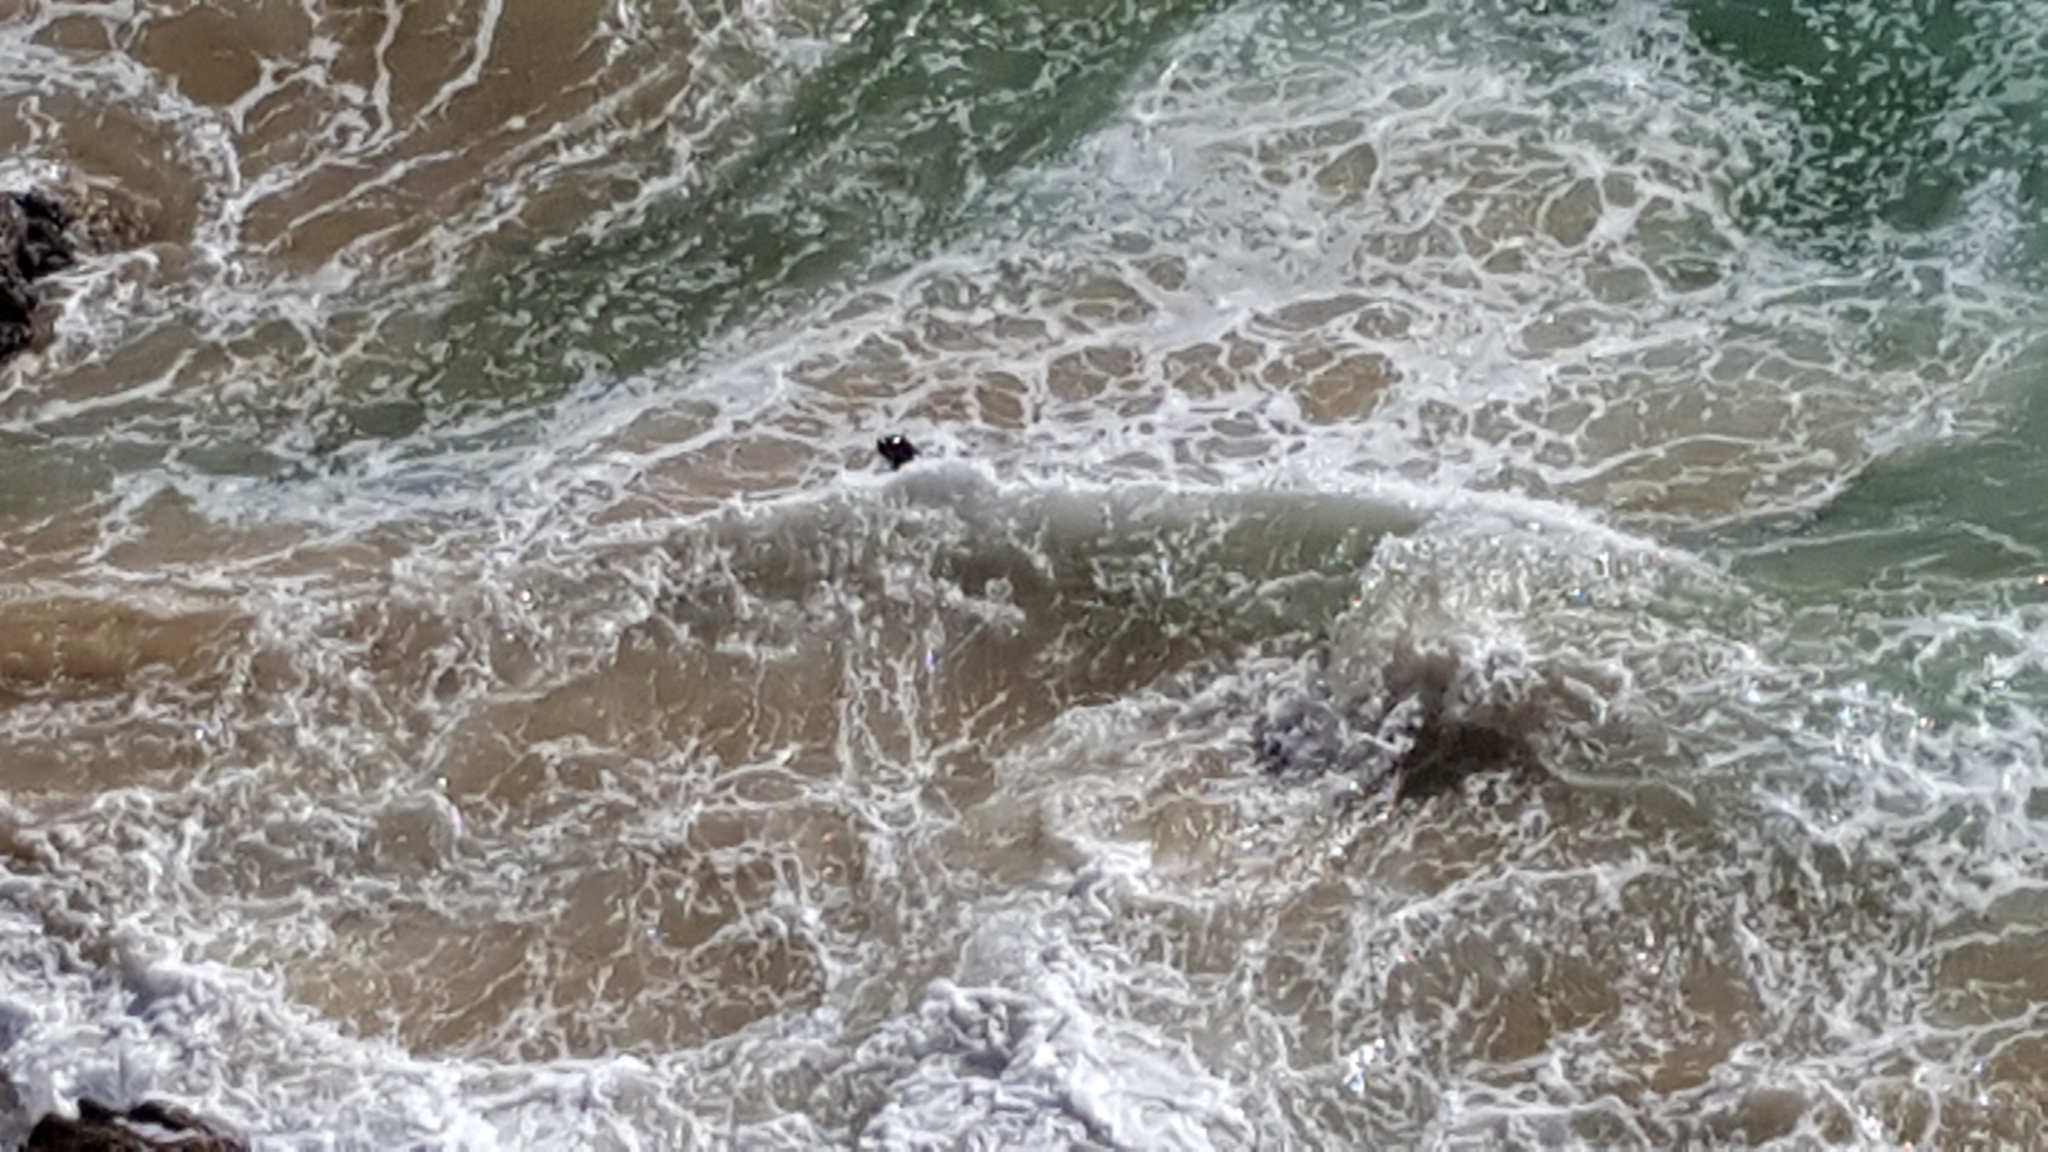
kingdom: Animalia
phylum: Chordata
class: Mammalia
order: Carnivora
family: Otariidae
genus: Arctocephalus
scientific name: Arctocephalus pusillus
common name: Brown fur seal
